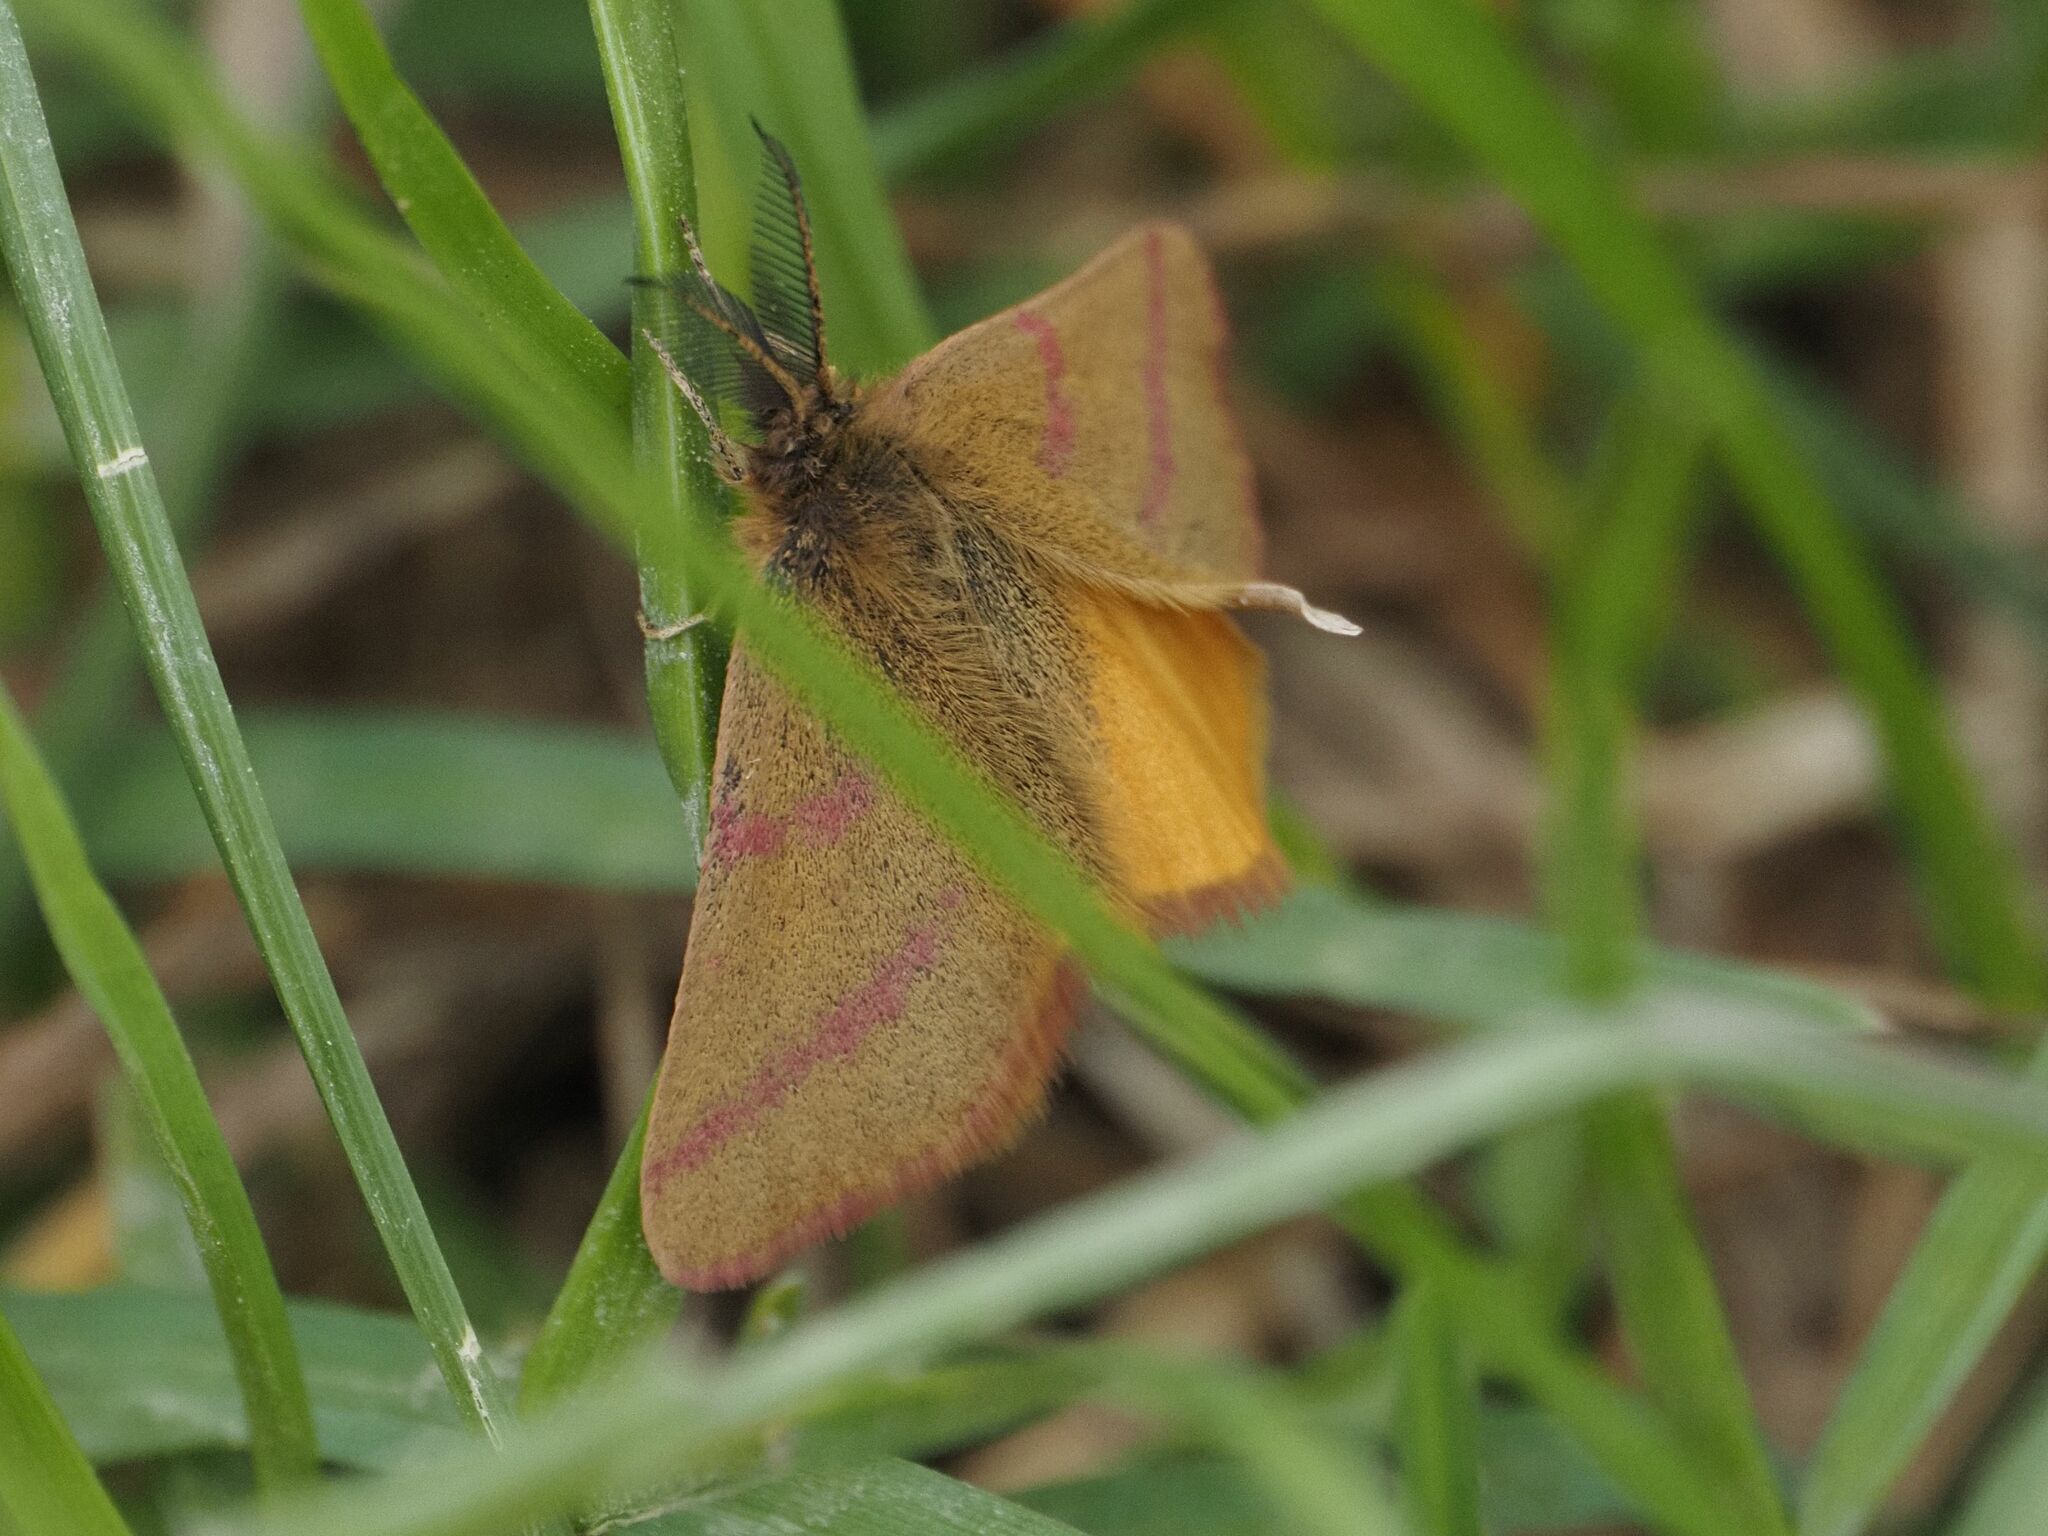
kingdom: Animalia
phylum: Arthropoda
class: Insecta
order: Lepidoptera
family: Geometridae
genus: Lythria
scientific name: Lythria purpuraria
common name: Purple-barred yellow
